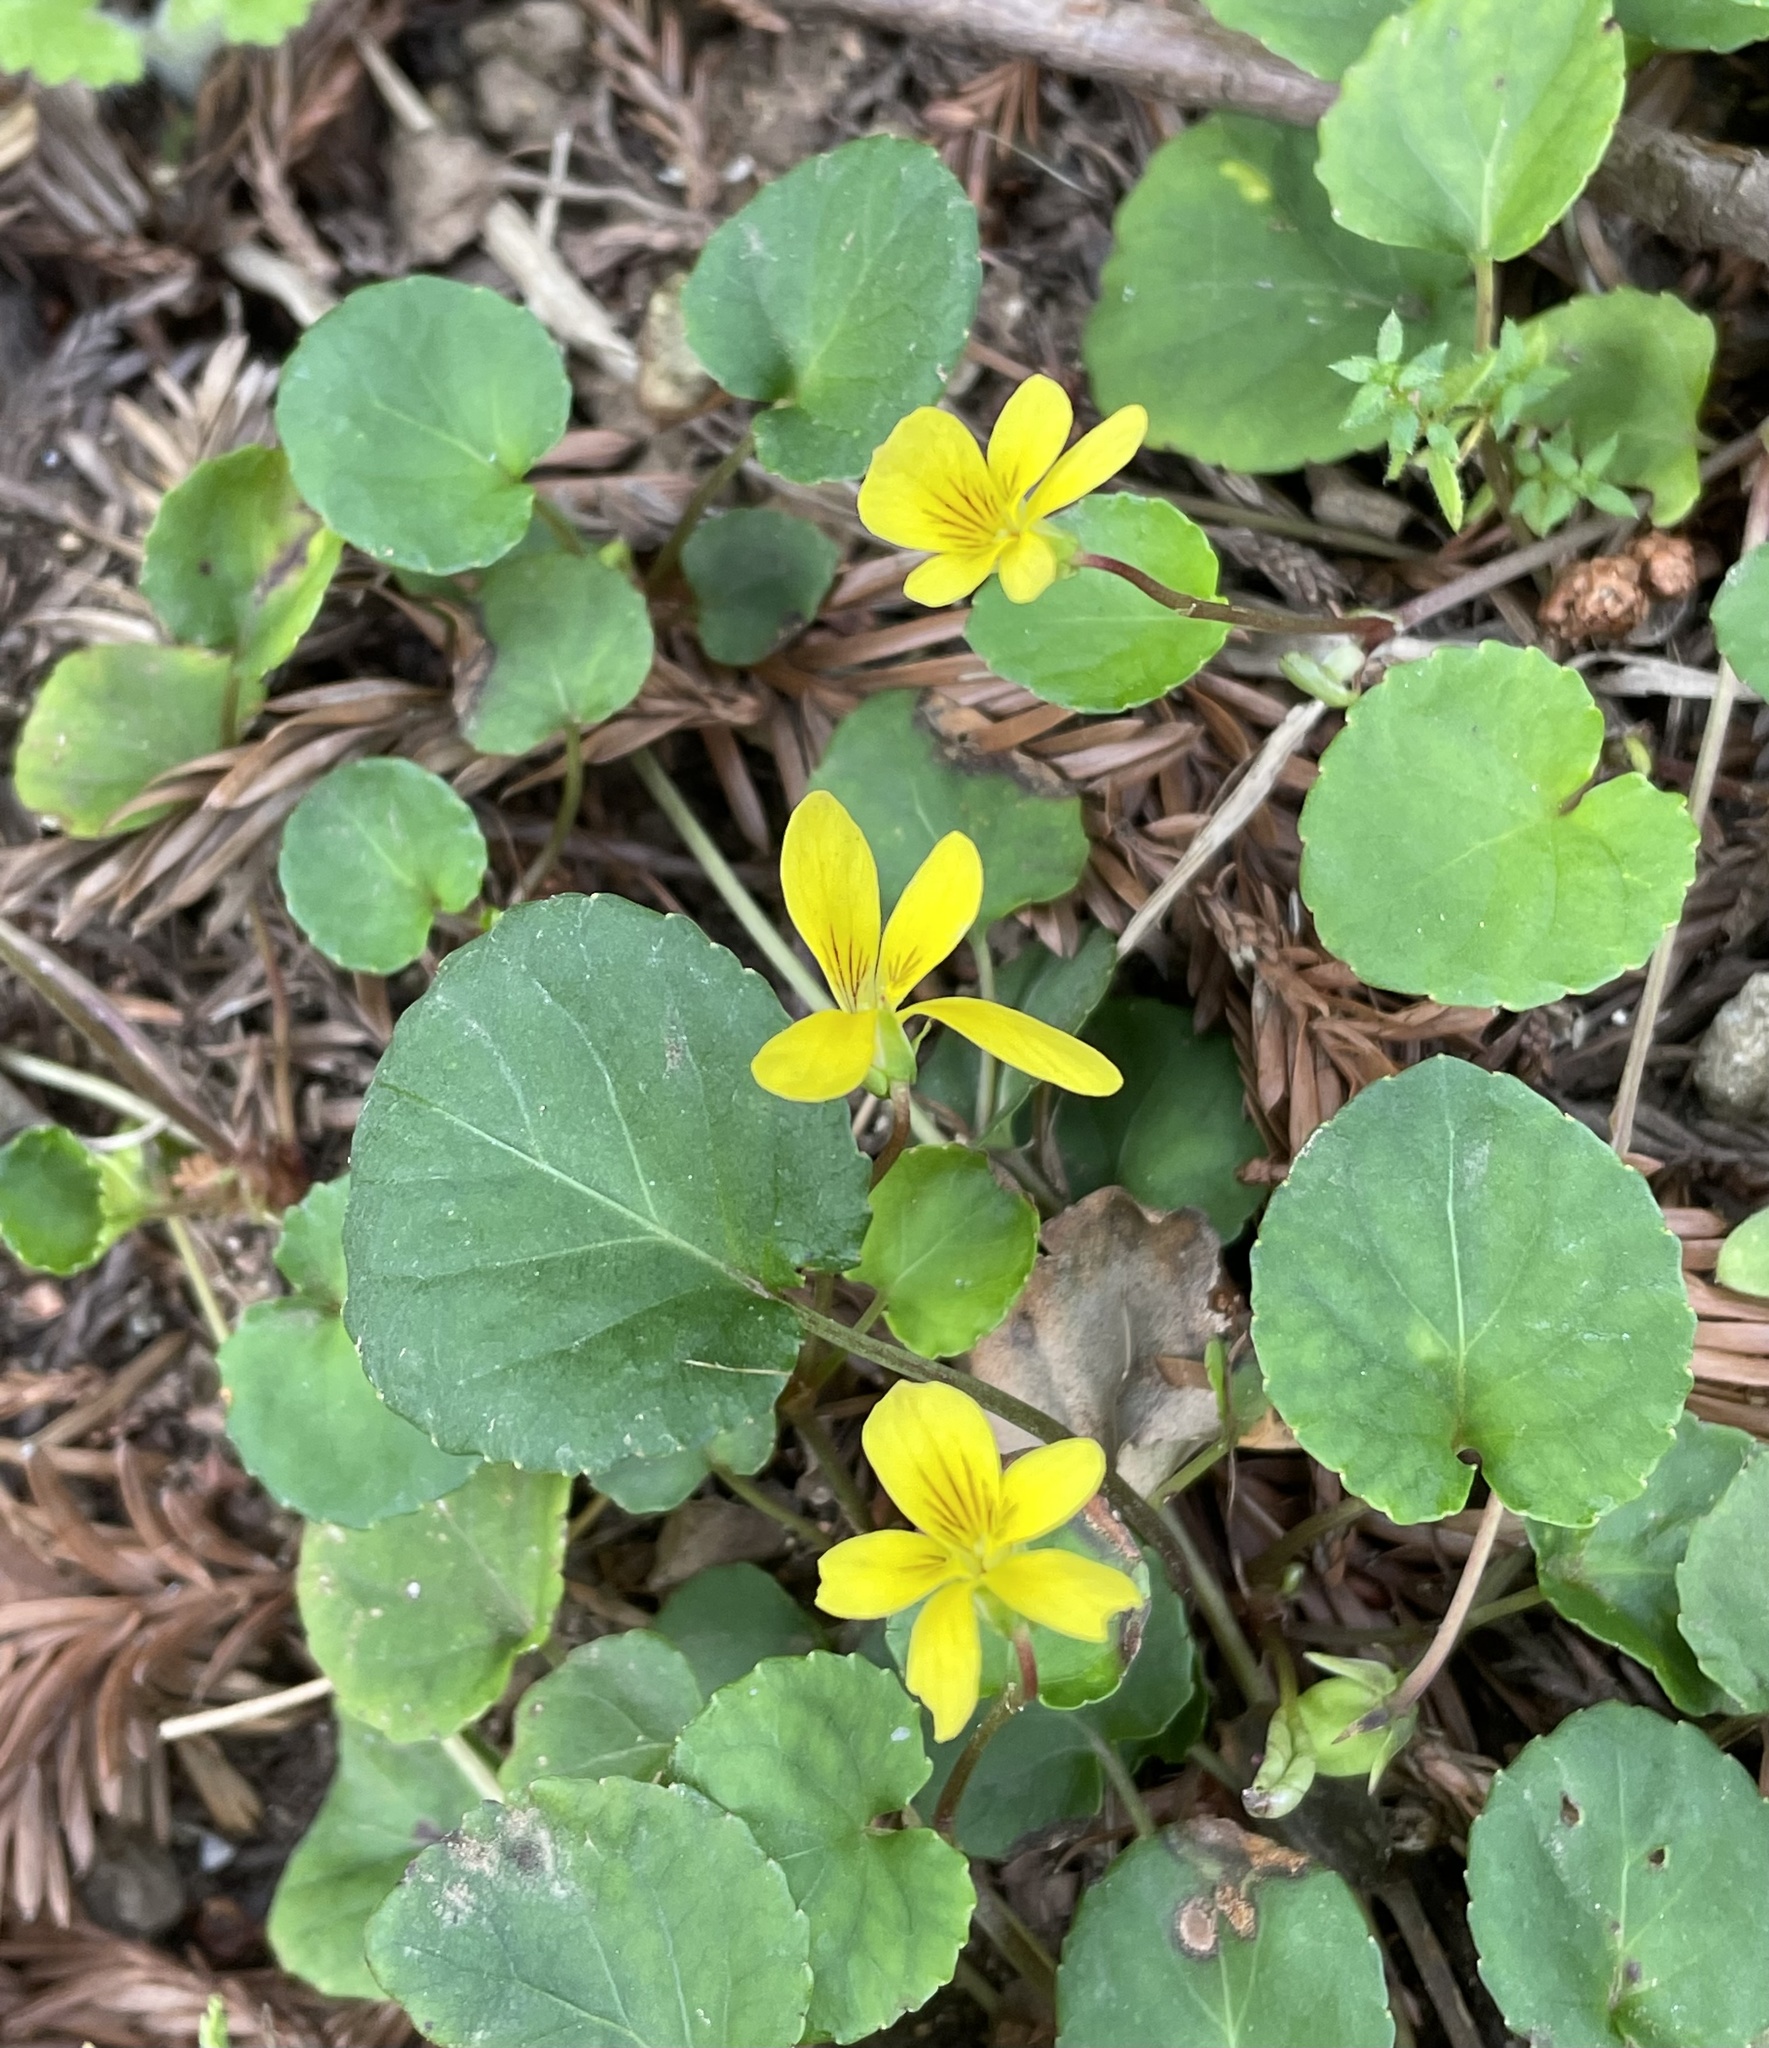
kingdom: Plantae
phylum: Tracheophyta
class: Magnoliopsida
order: Malpighiales
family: Violaceae
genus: Viola
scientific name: Viola sempervirens
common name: Evergreen violet
